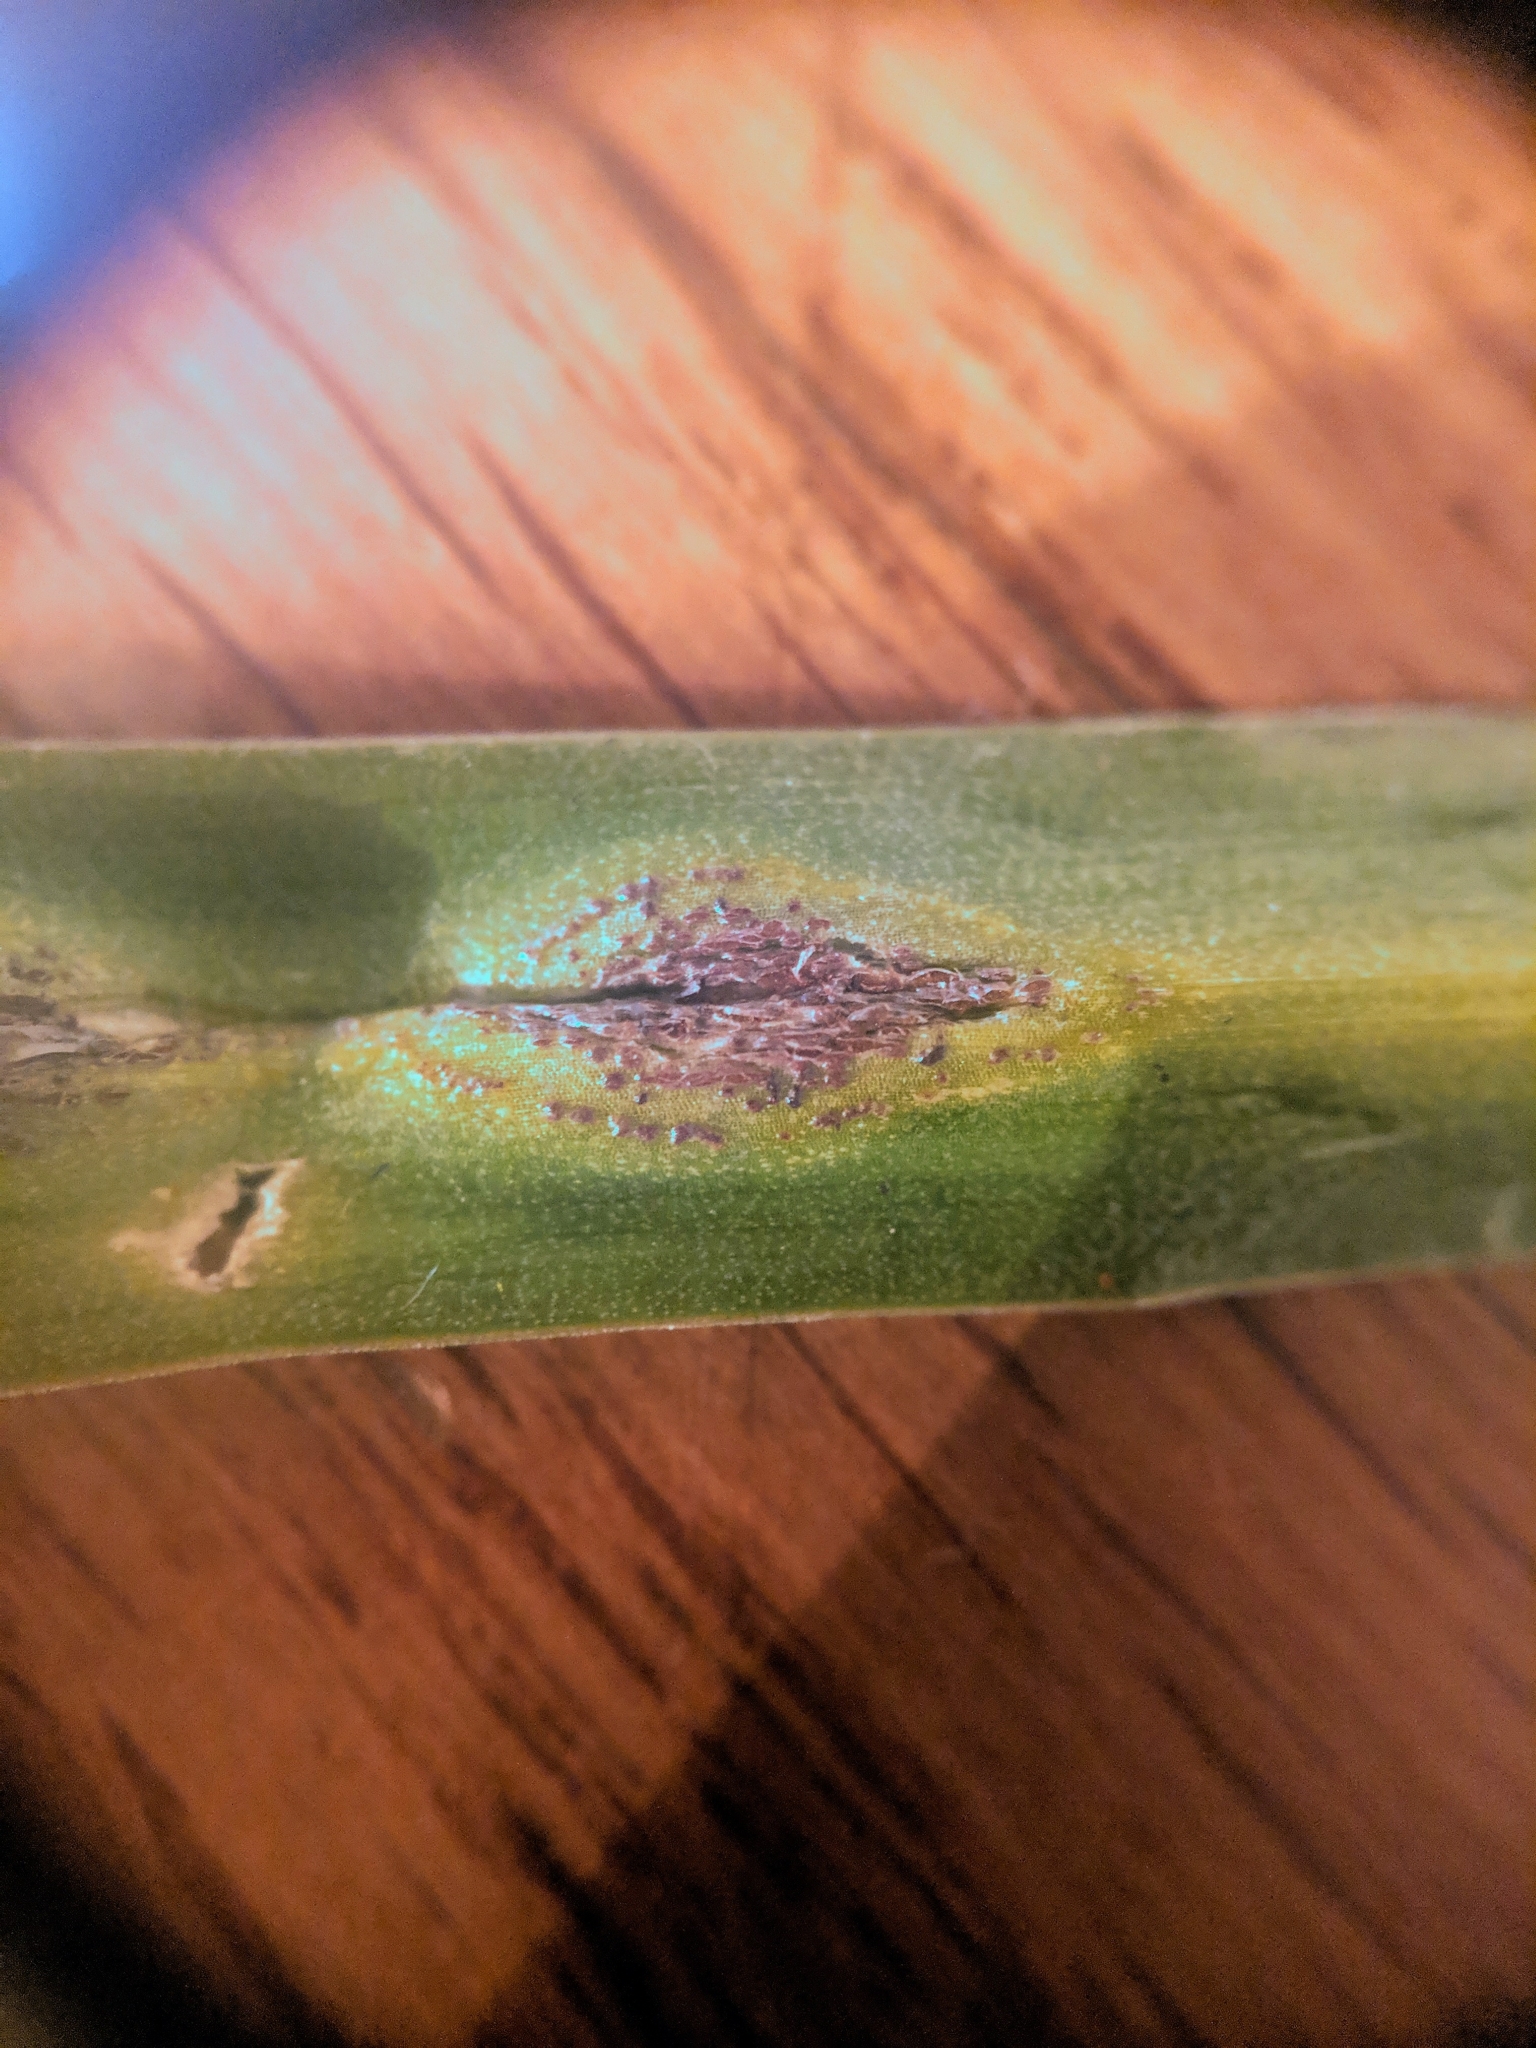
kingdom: Fungi
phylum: Basidiomycota
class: Pucciniomycetes
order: Pucciniales
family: Pucciniaceae
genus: Uromyces
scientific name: Uromyces hyacinthi
